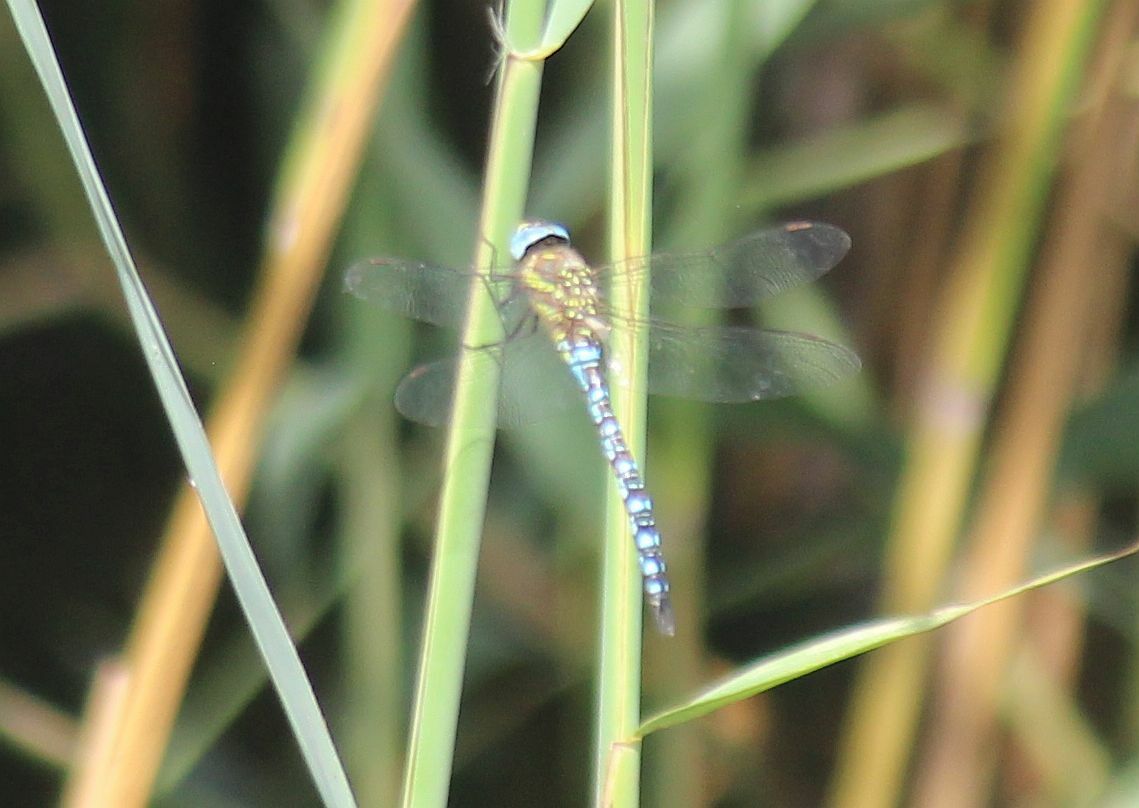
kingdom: Animalia
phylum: Arthropoda
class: Insecta
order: Odonata
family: Aeshnidae
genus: Aeshna
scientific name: Aeshna mixta
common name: Migrant hawker
